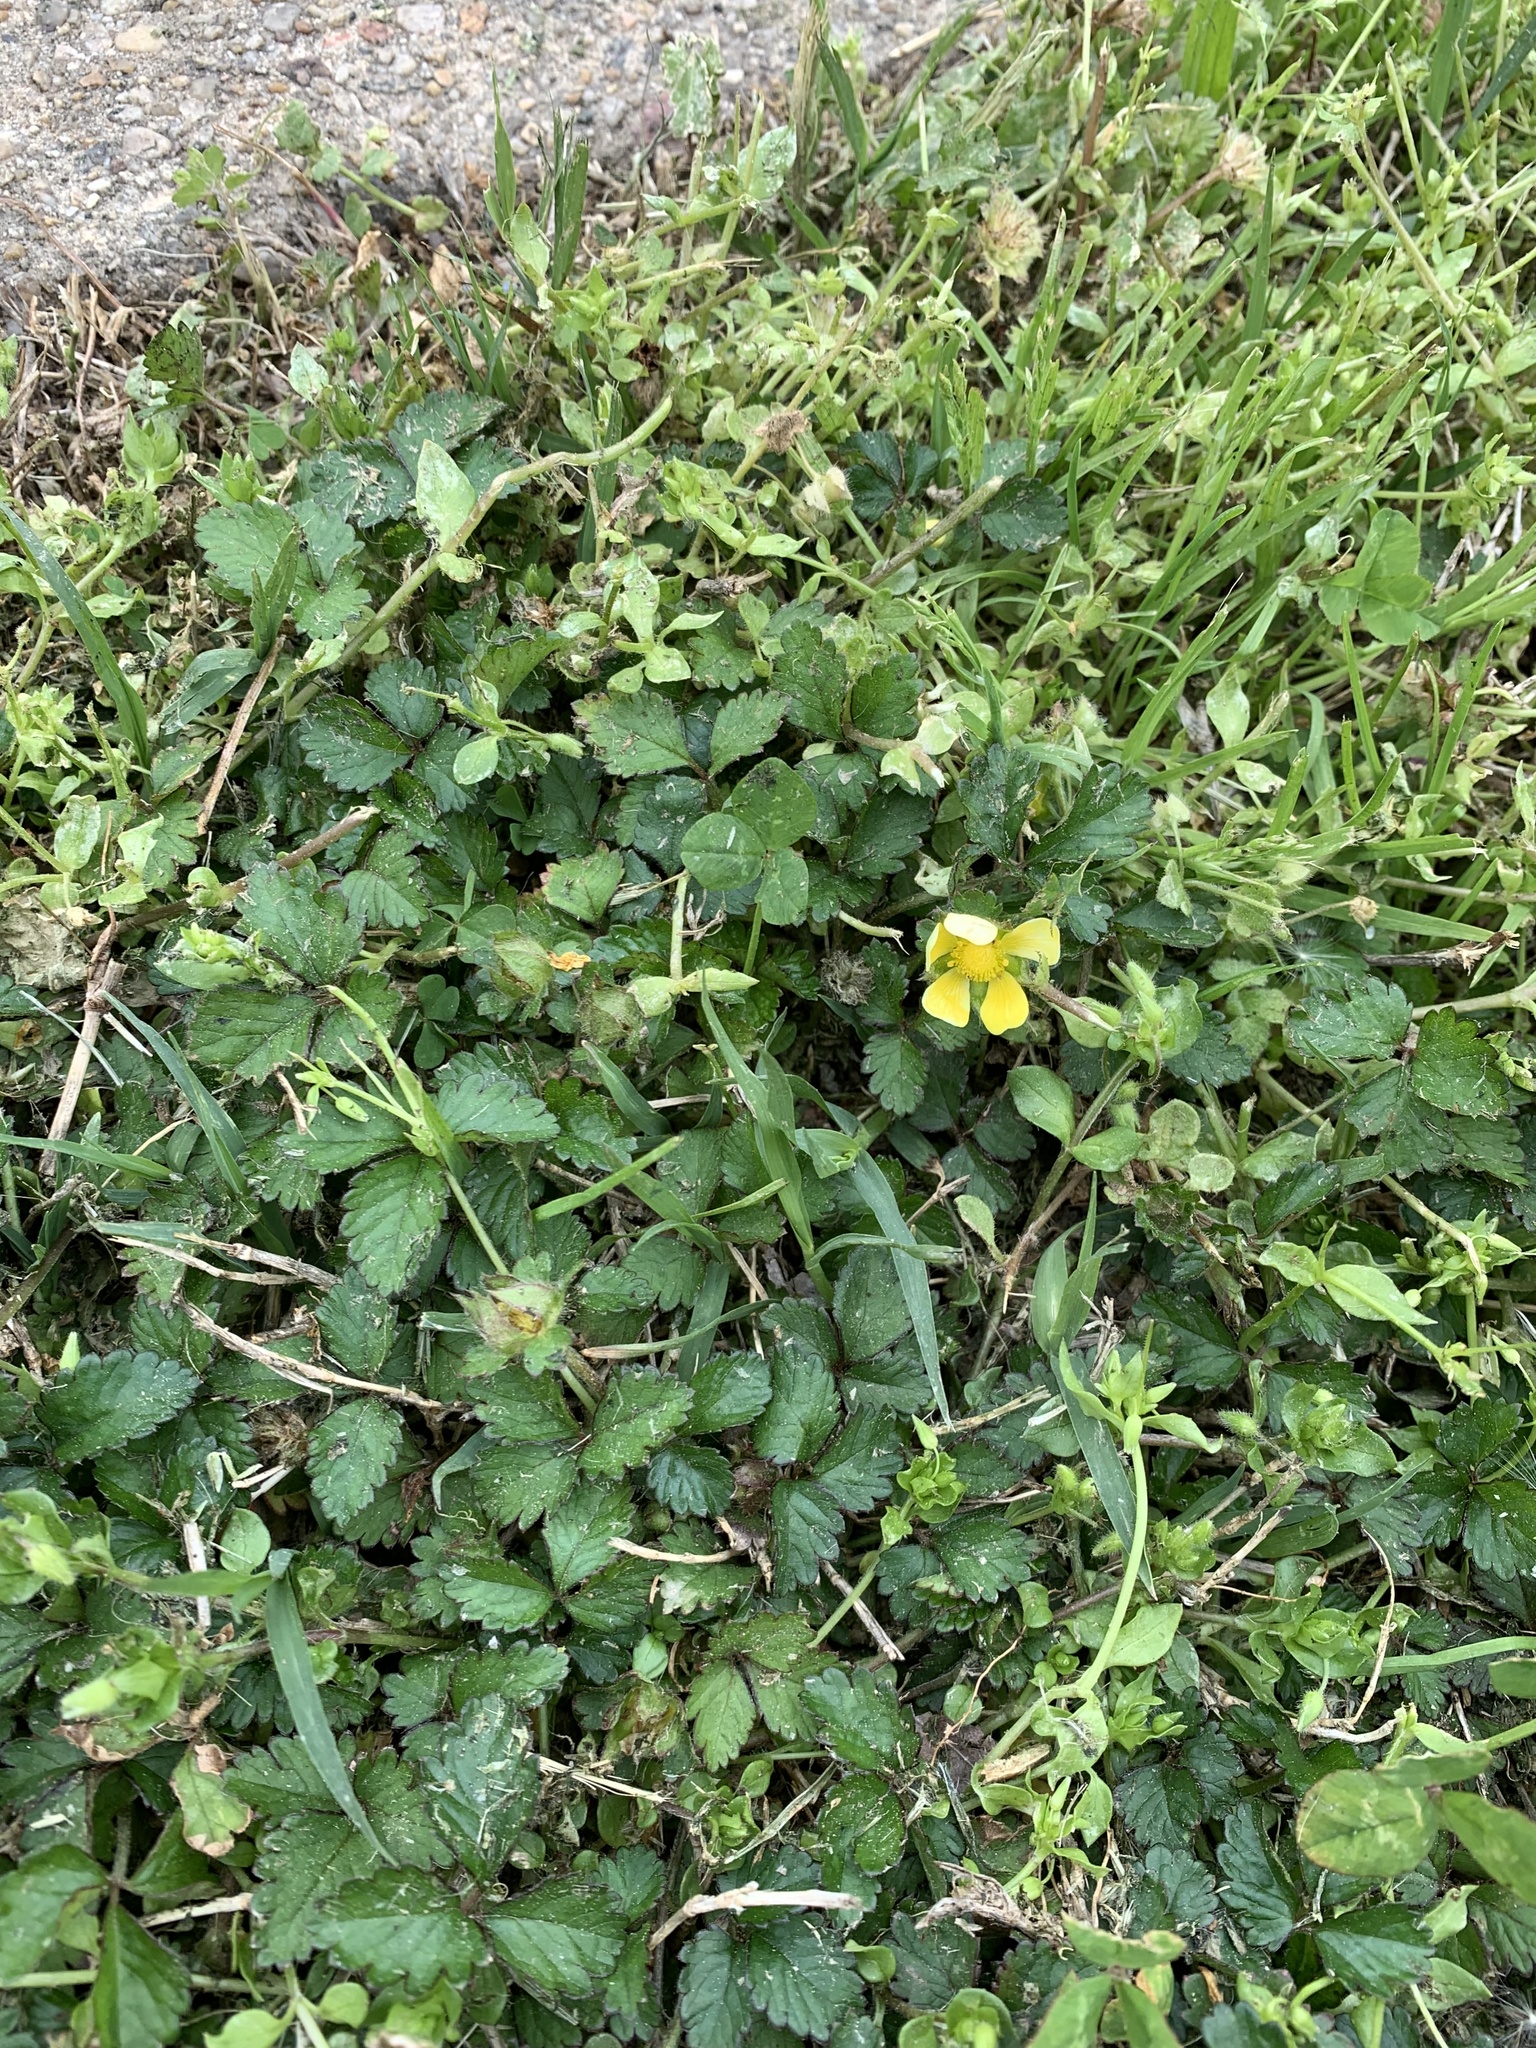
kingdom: Plantae
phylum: Tracheophyta
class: Magnoliopsida
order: Rosales
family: Rosaceae
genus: Potentilla
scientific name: Potentilla indica
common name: Yellow-flowered strawberry
